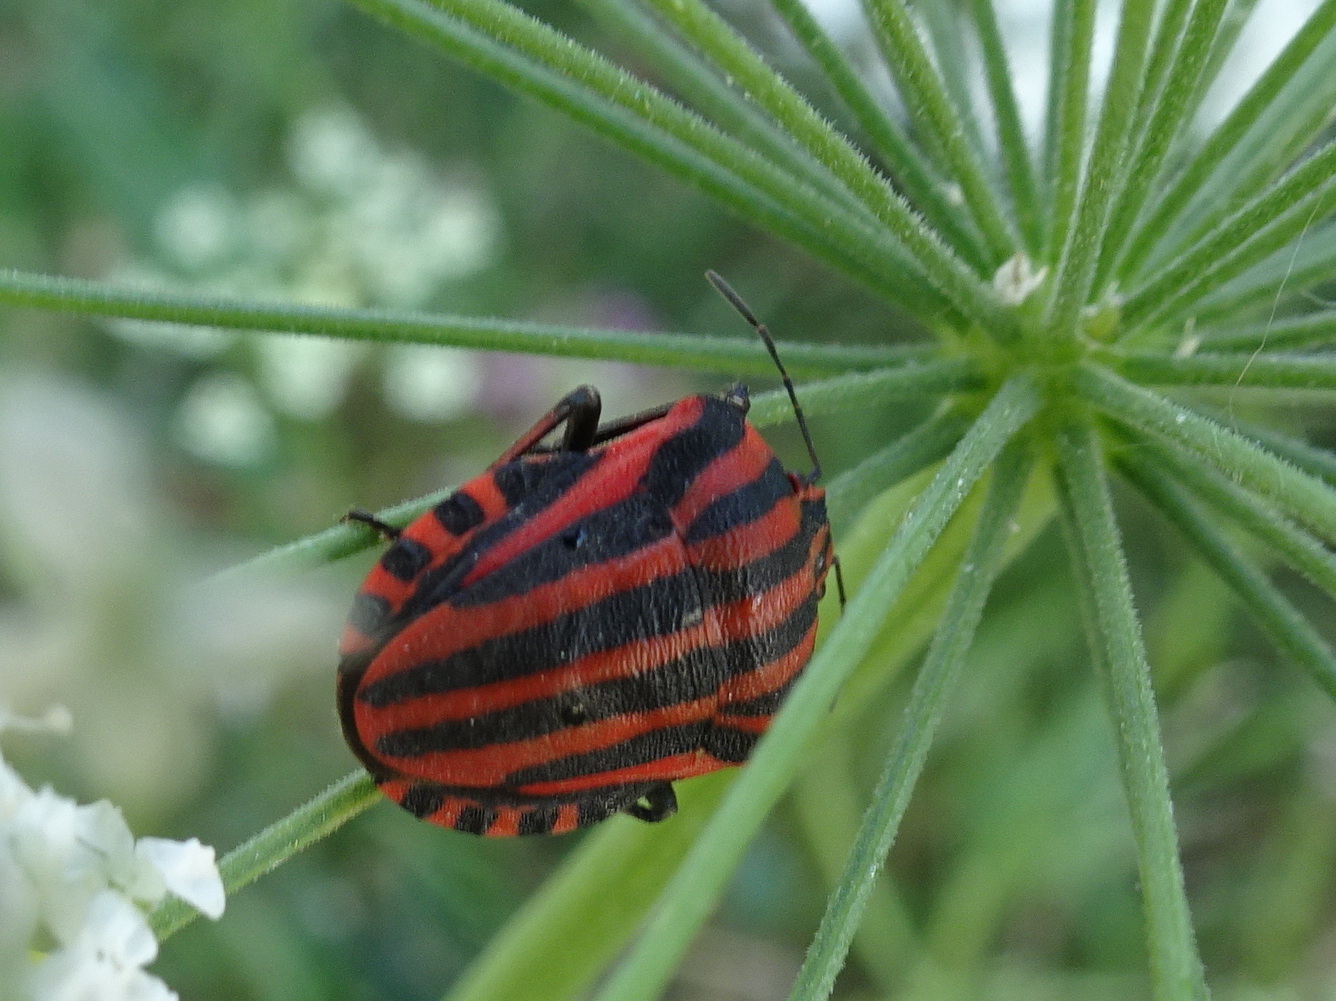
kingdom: Animalia
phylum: Arthropoda
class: Insecta
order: Hemiptera
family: Pentatomidae
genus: Graphosoma
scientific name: Graphosoma italicum
